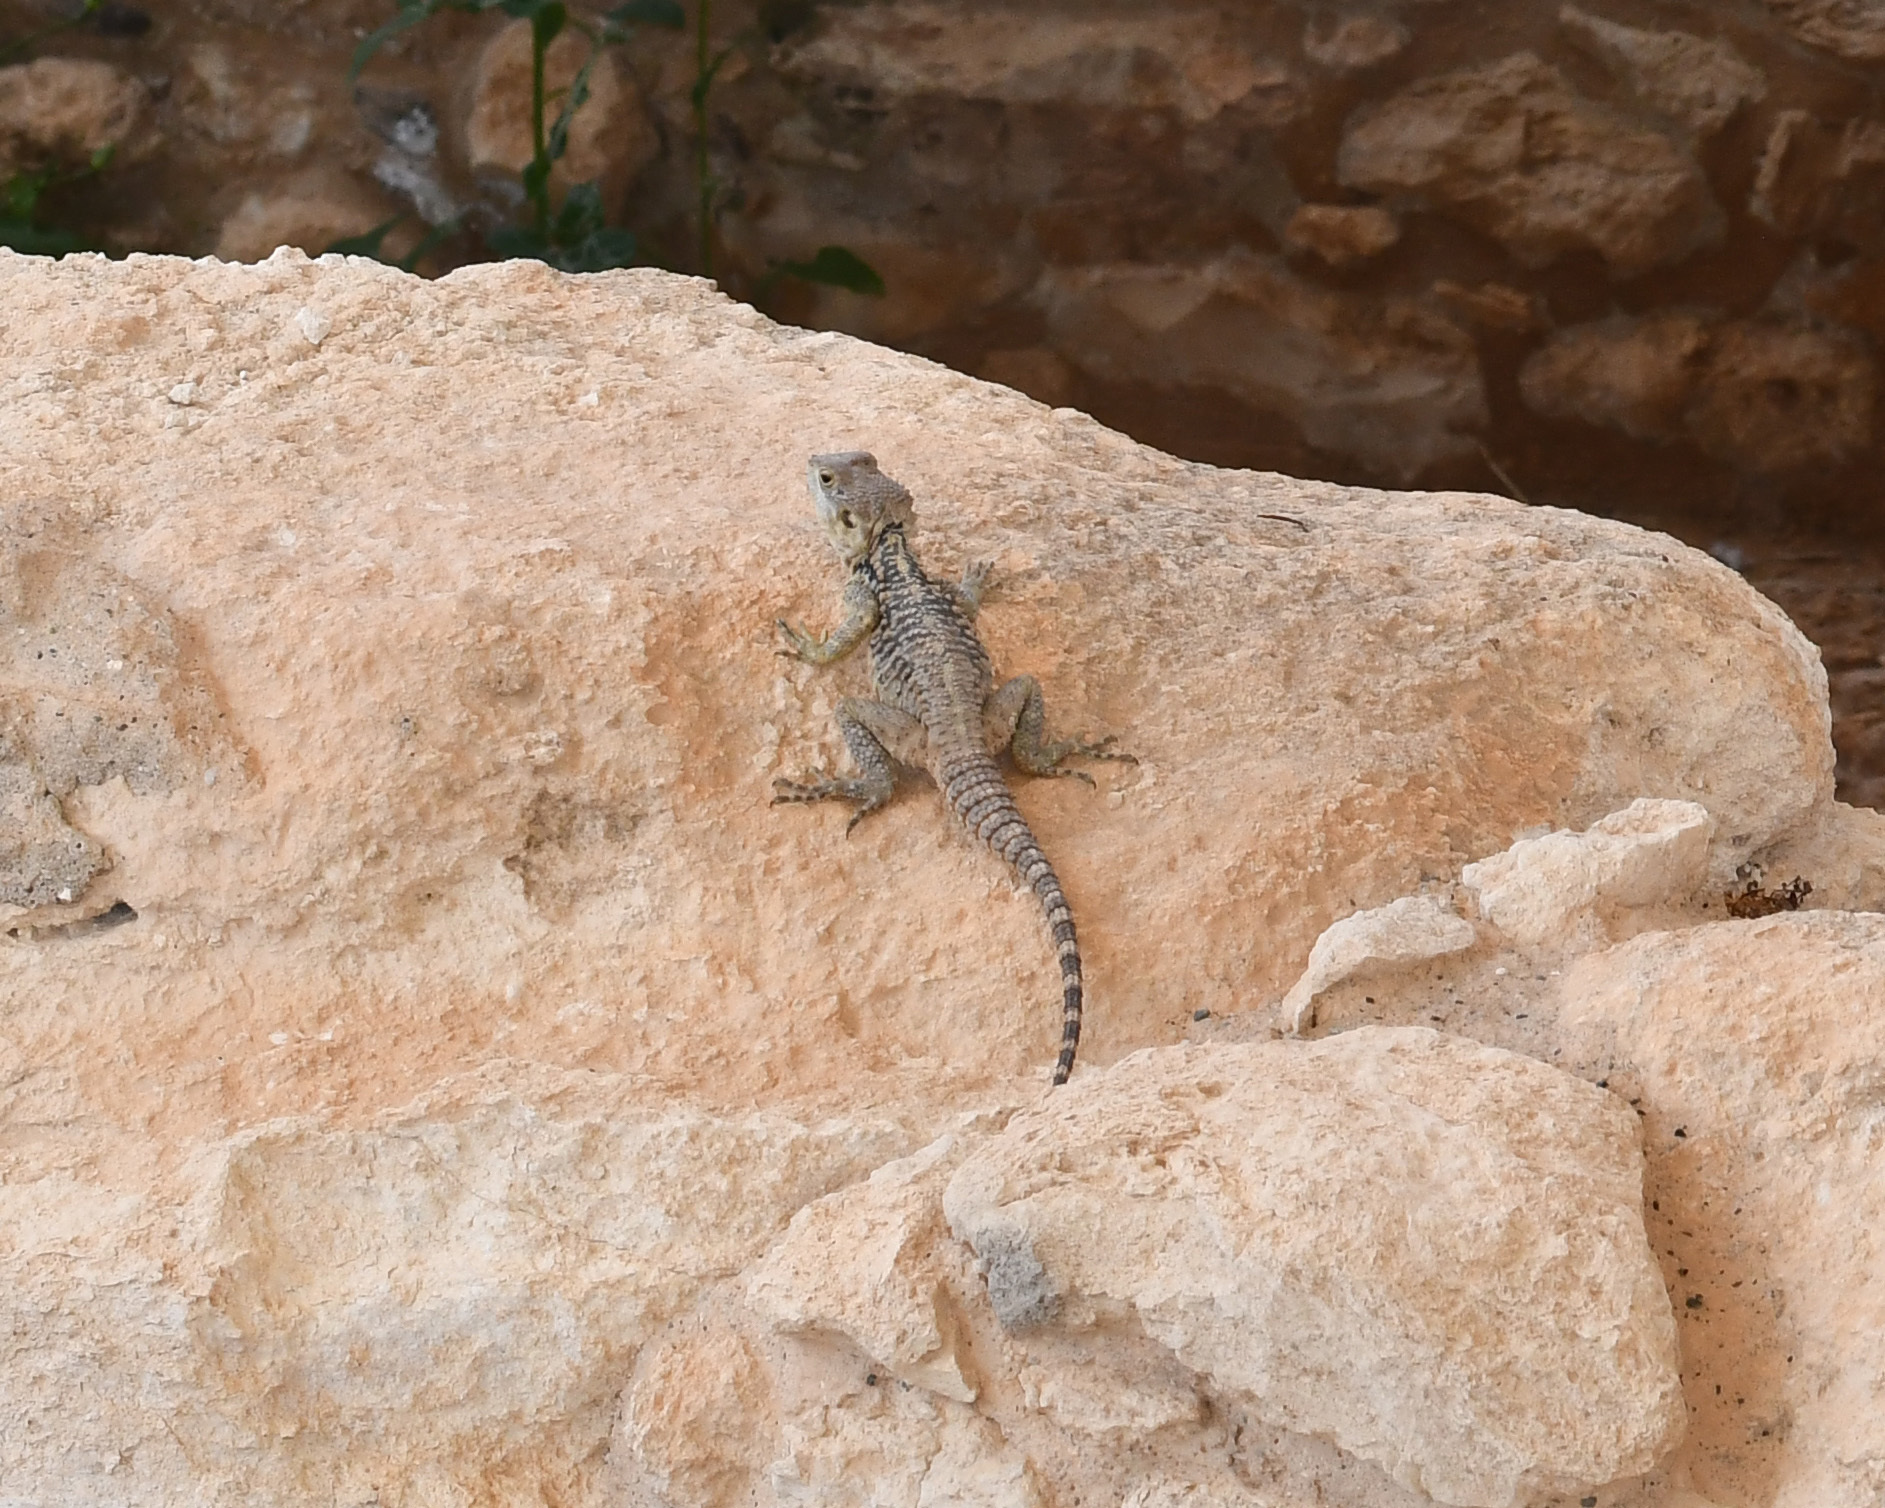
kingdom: Animalia
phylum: Chordata
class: Squamata
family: Agamidae
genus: Laudakia
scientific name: Laudakia
